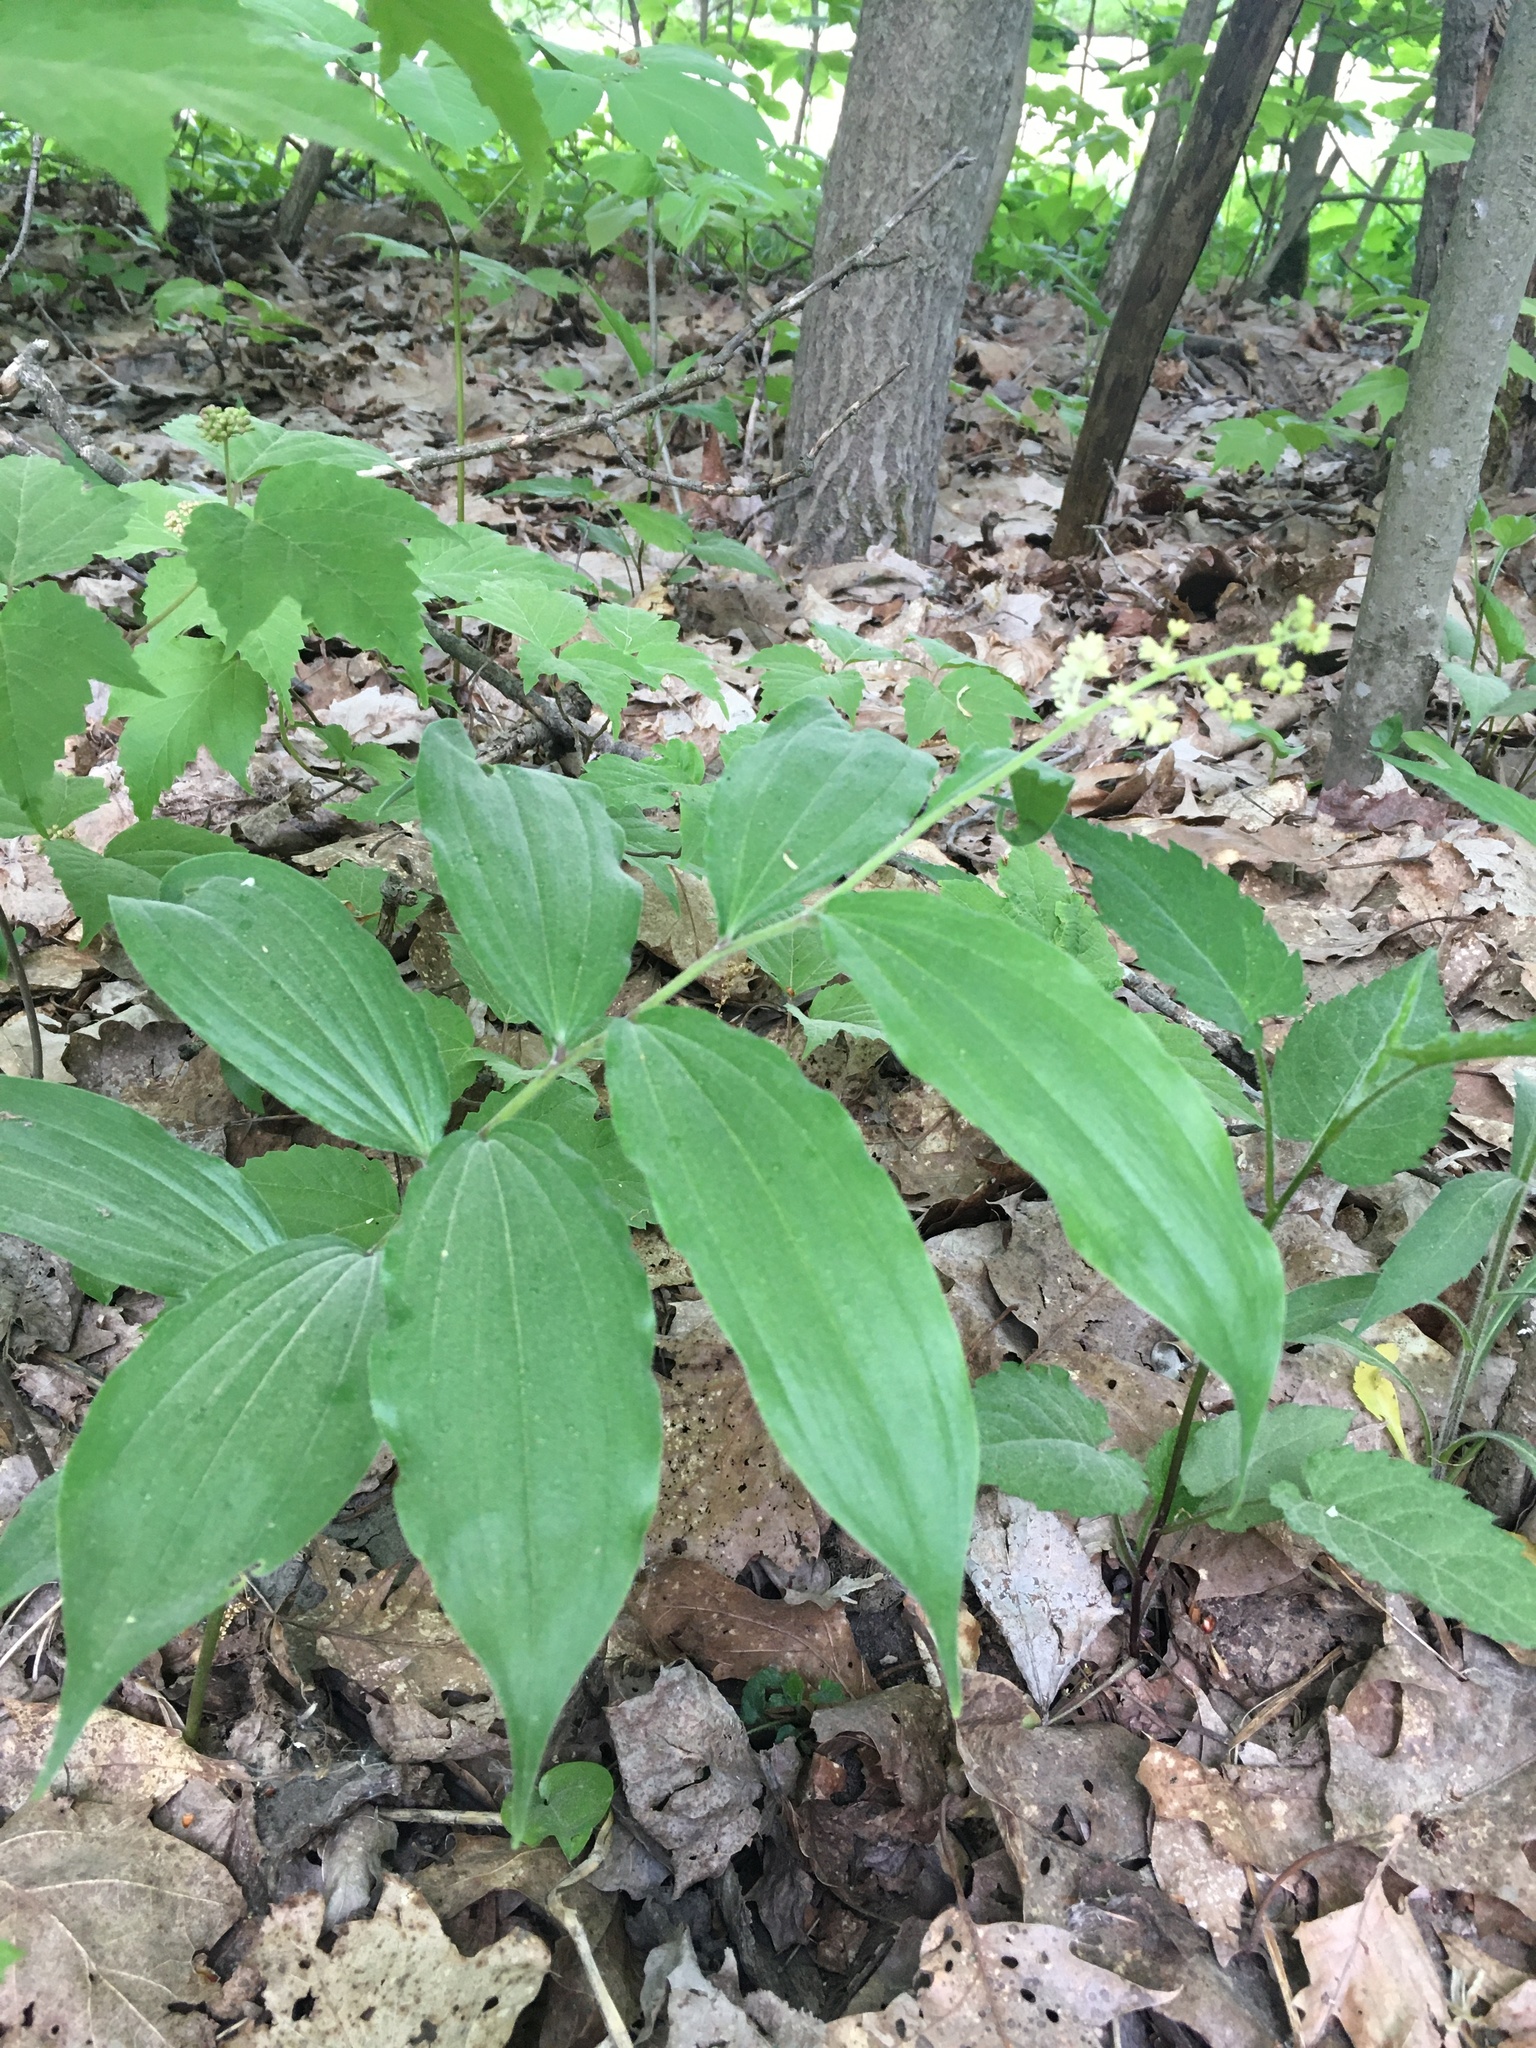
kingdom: Plantae
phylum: Tracheophyta
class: Liliopsida
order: Asparagales
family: Asparagaceae
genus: Maianthemum
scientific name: Maianthemum racemosum
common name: False spikenard
